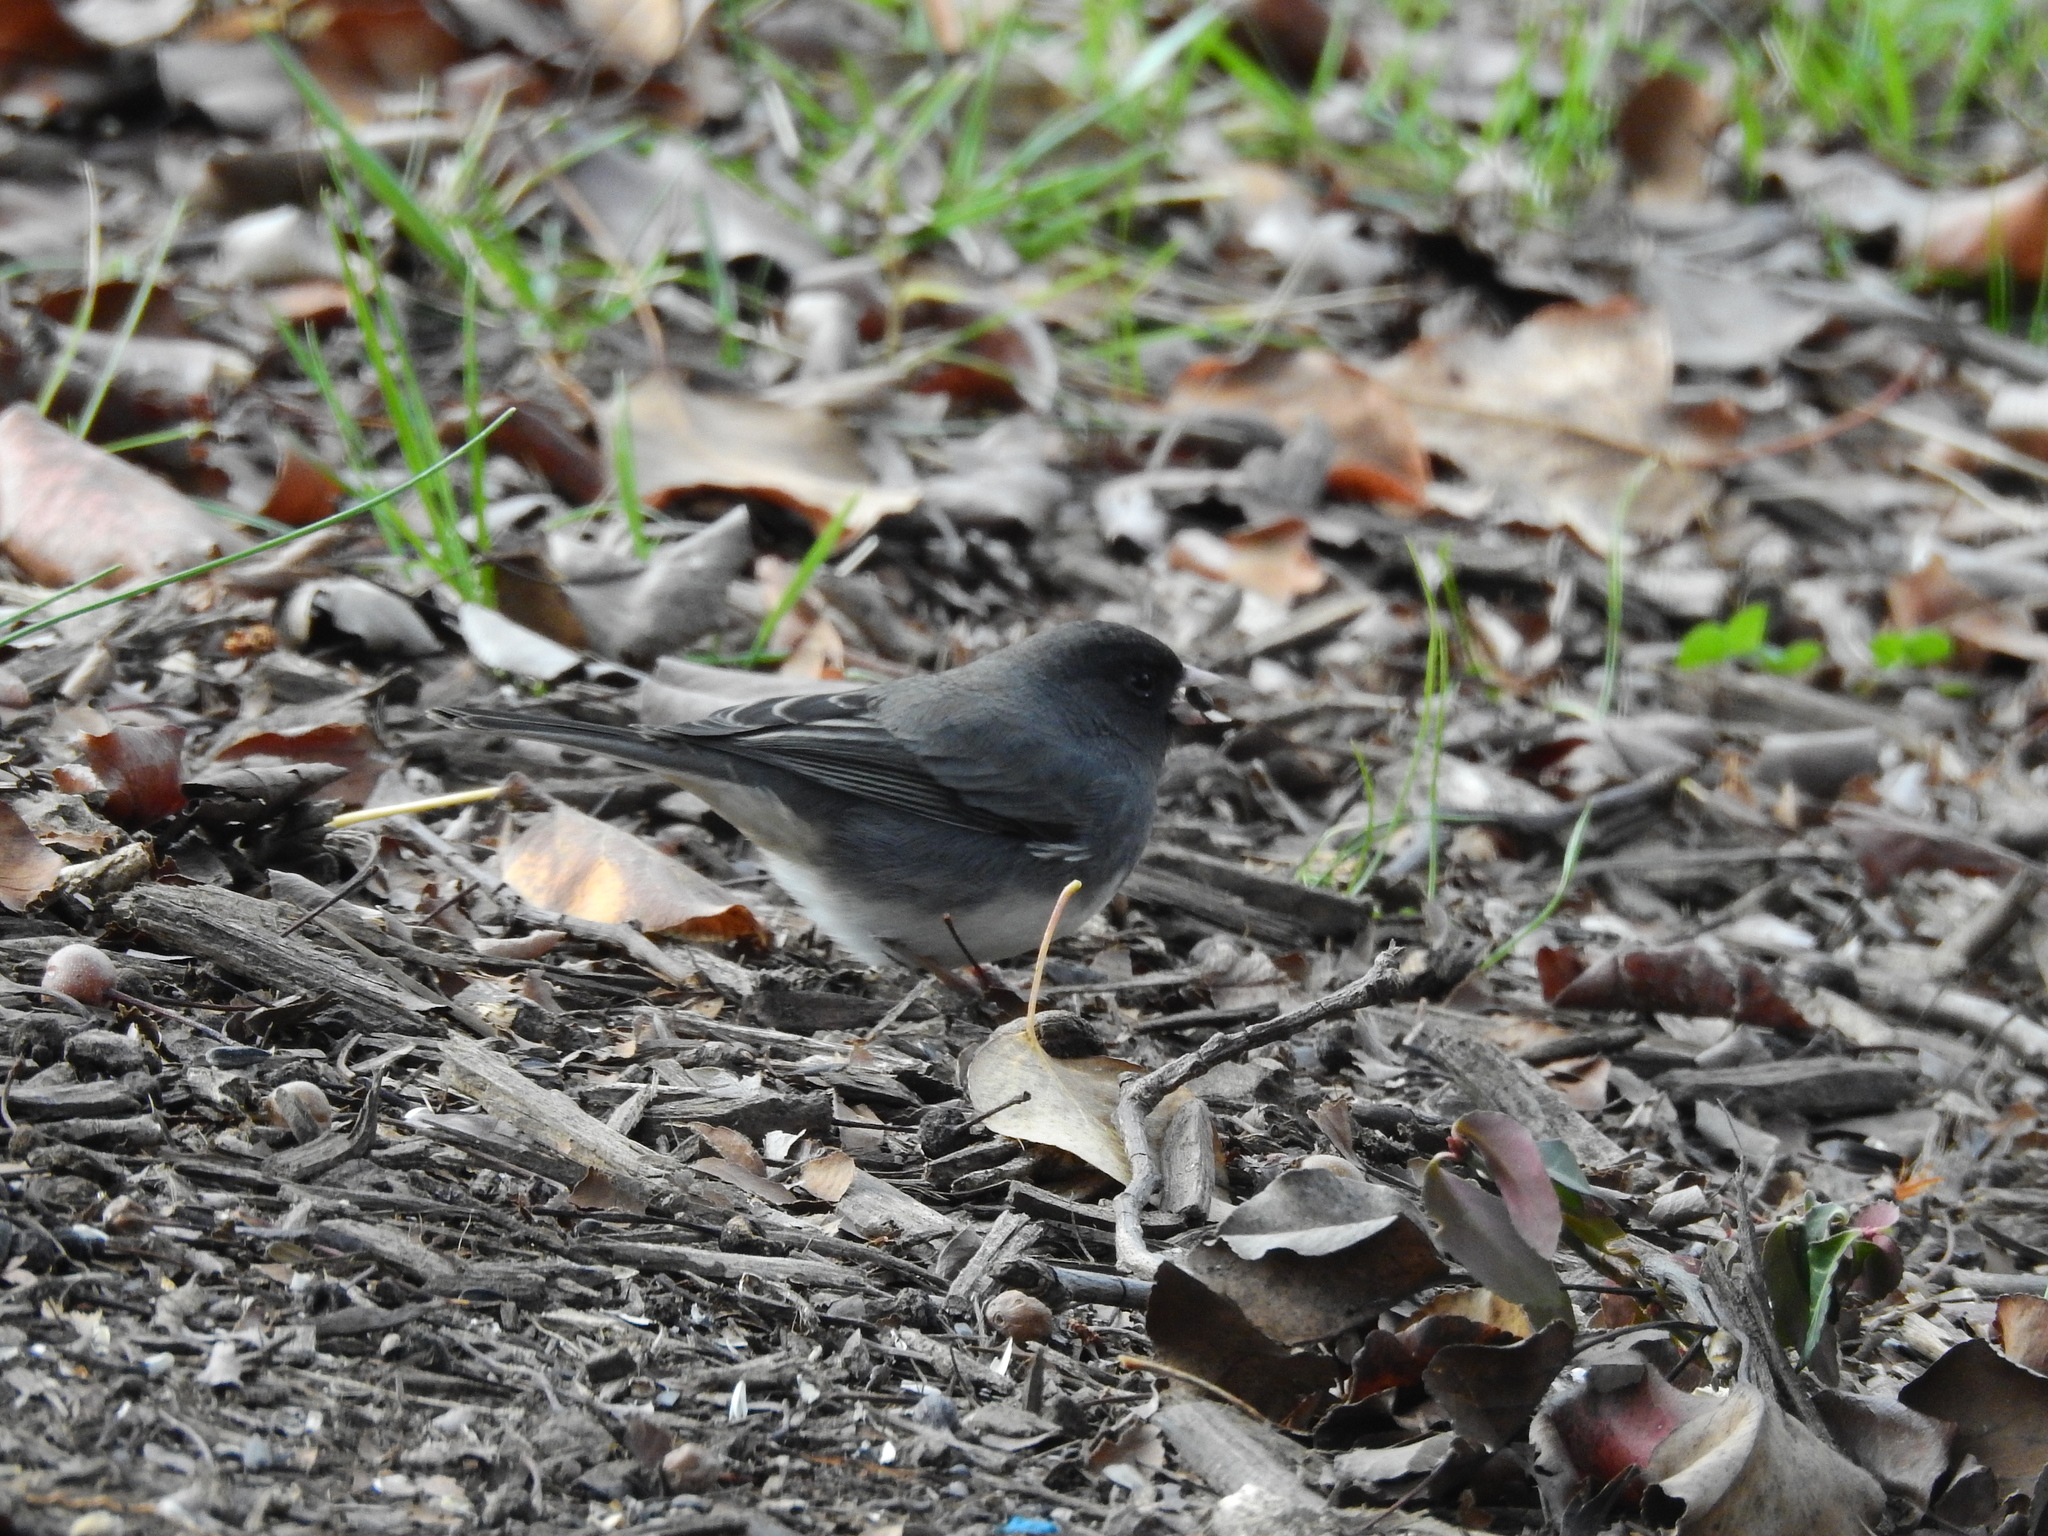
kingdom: Animalia
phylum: Chordata
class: Aves
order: Passeriformes
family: Passerellidae
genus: Junco
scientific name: Junco hyemalis
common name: Dark-eyed junco
